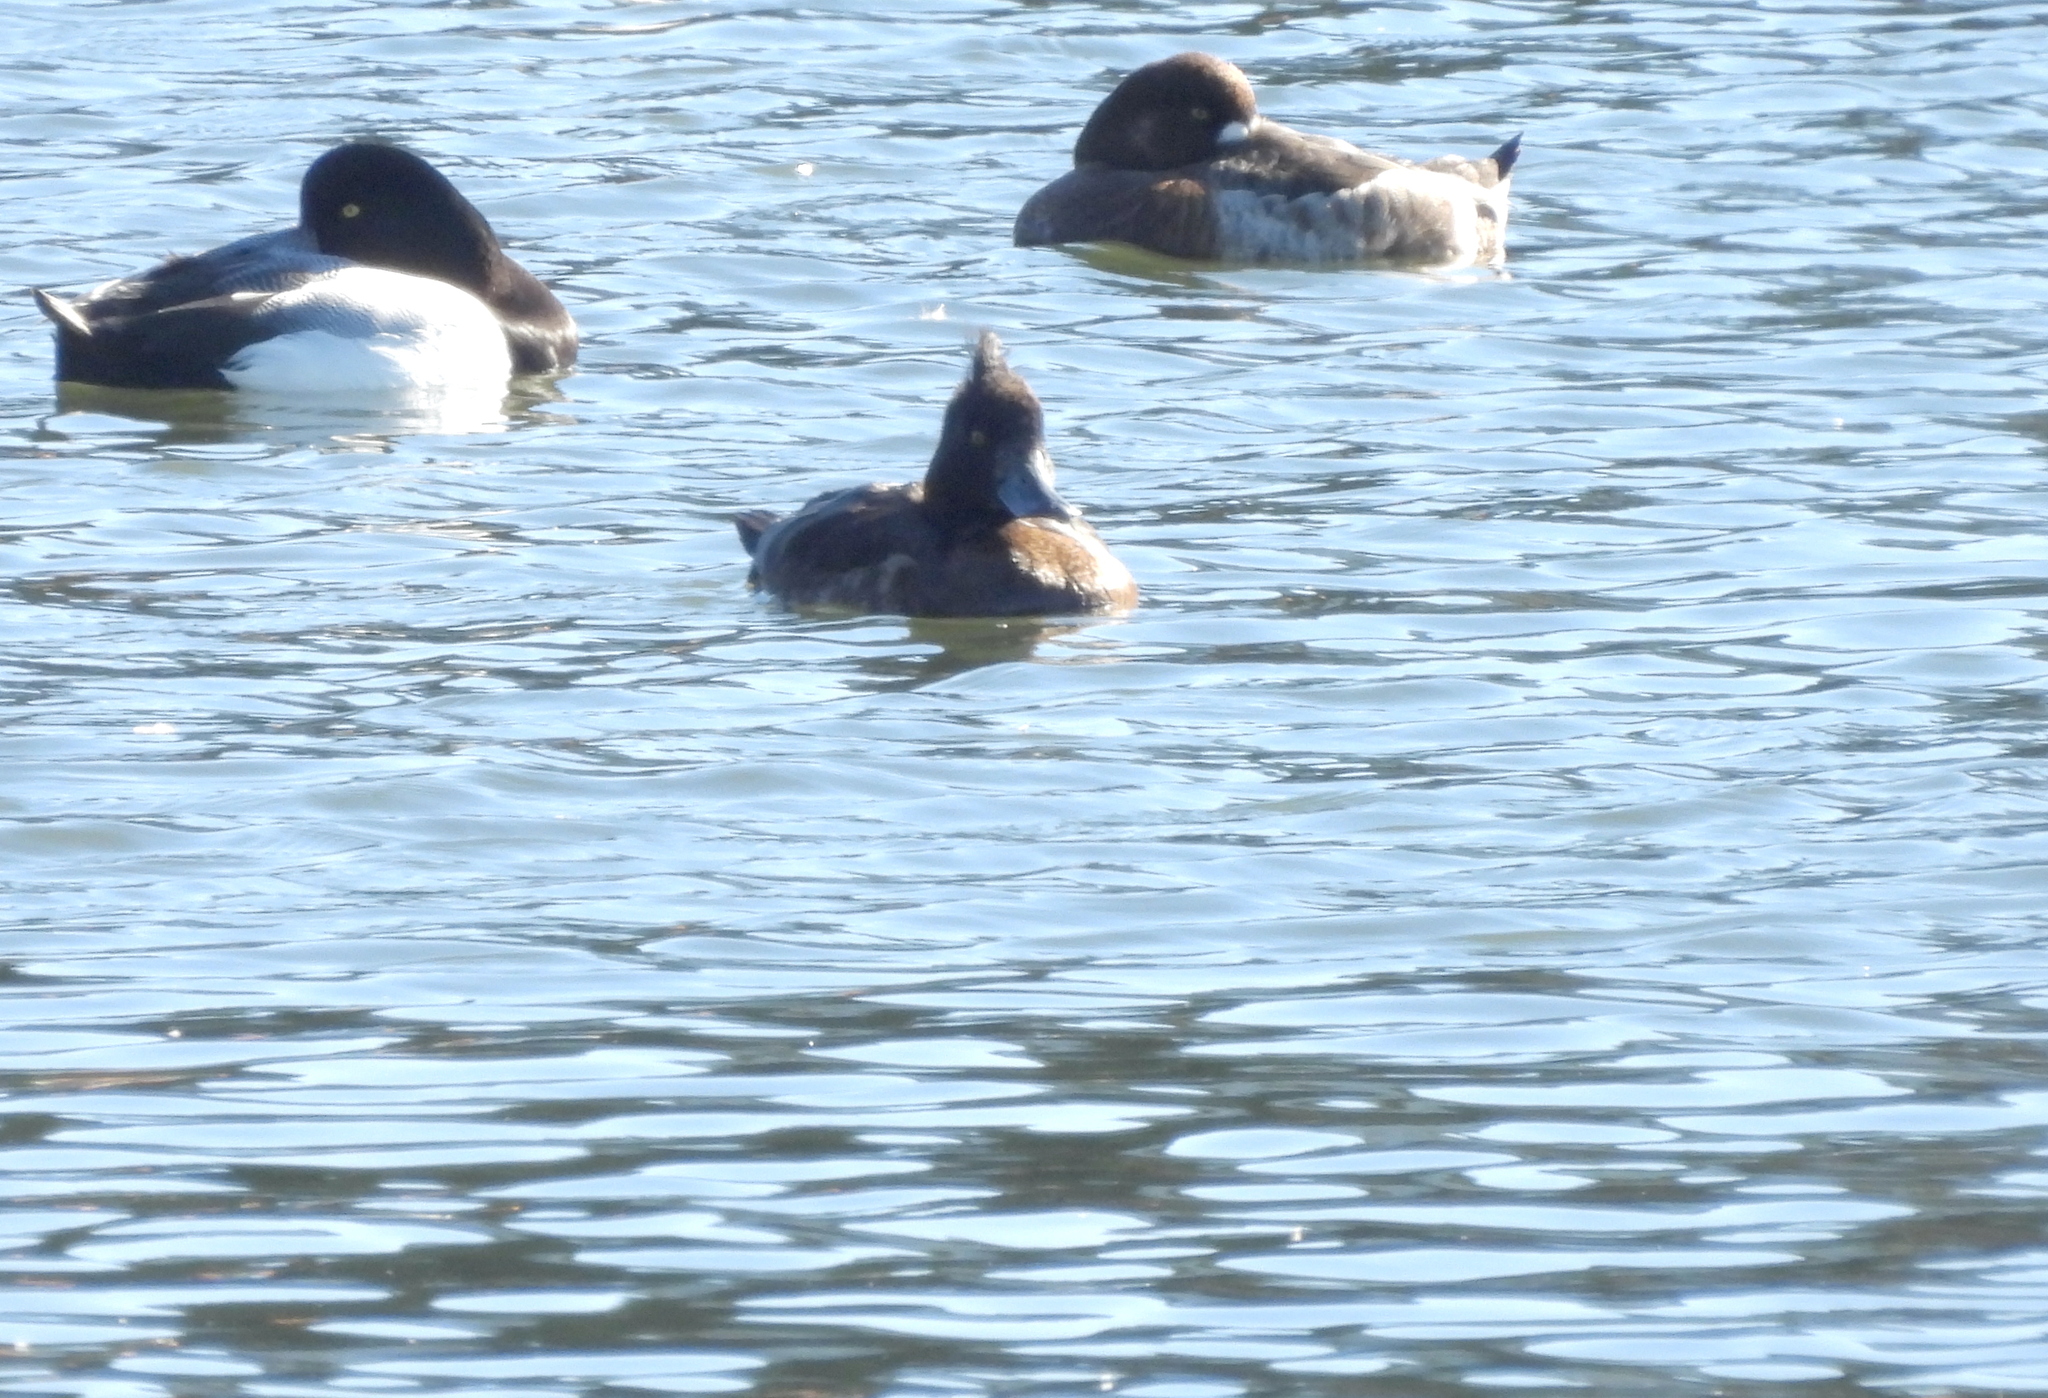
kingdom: Animalia
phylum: Chordata
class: Aves
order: Anseriformes
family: Anatidae
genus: Aythya
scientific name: Aythya fuligula
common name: Tufted duck
